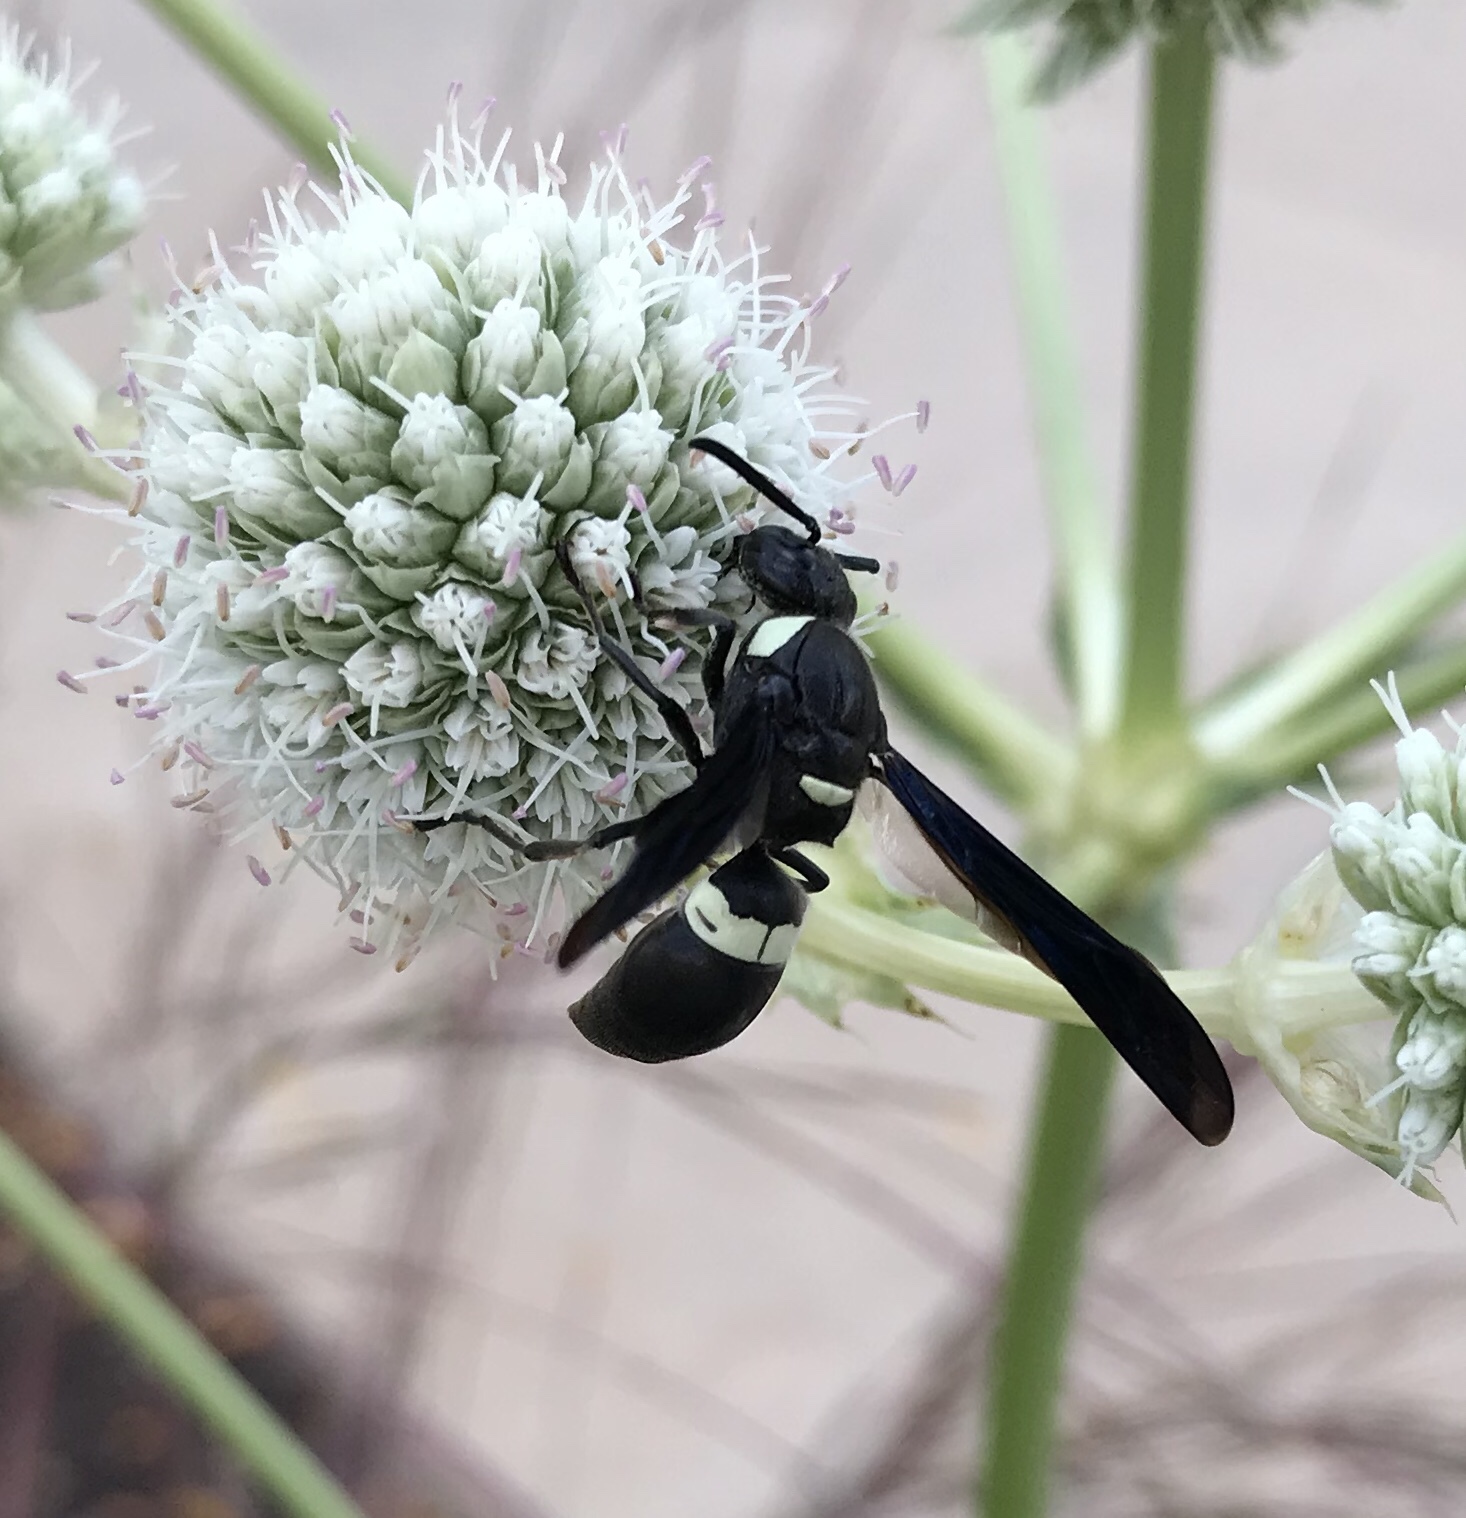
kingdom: Animalia
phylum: Arthropoda
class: Insecta
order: Hymenoptera
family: Eumenidae
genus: Monobia
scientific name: Monobia quadridens
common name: Four-toothed mason wasp
